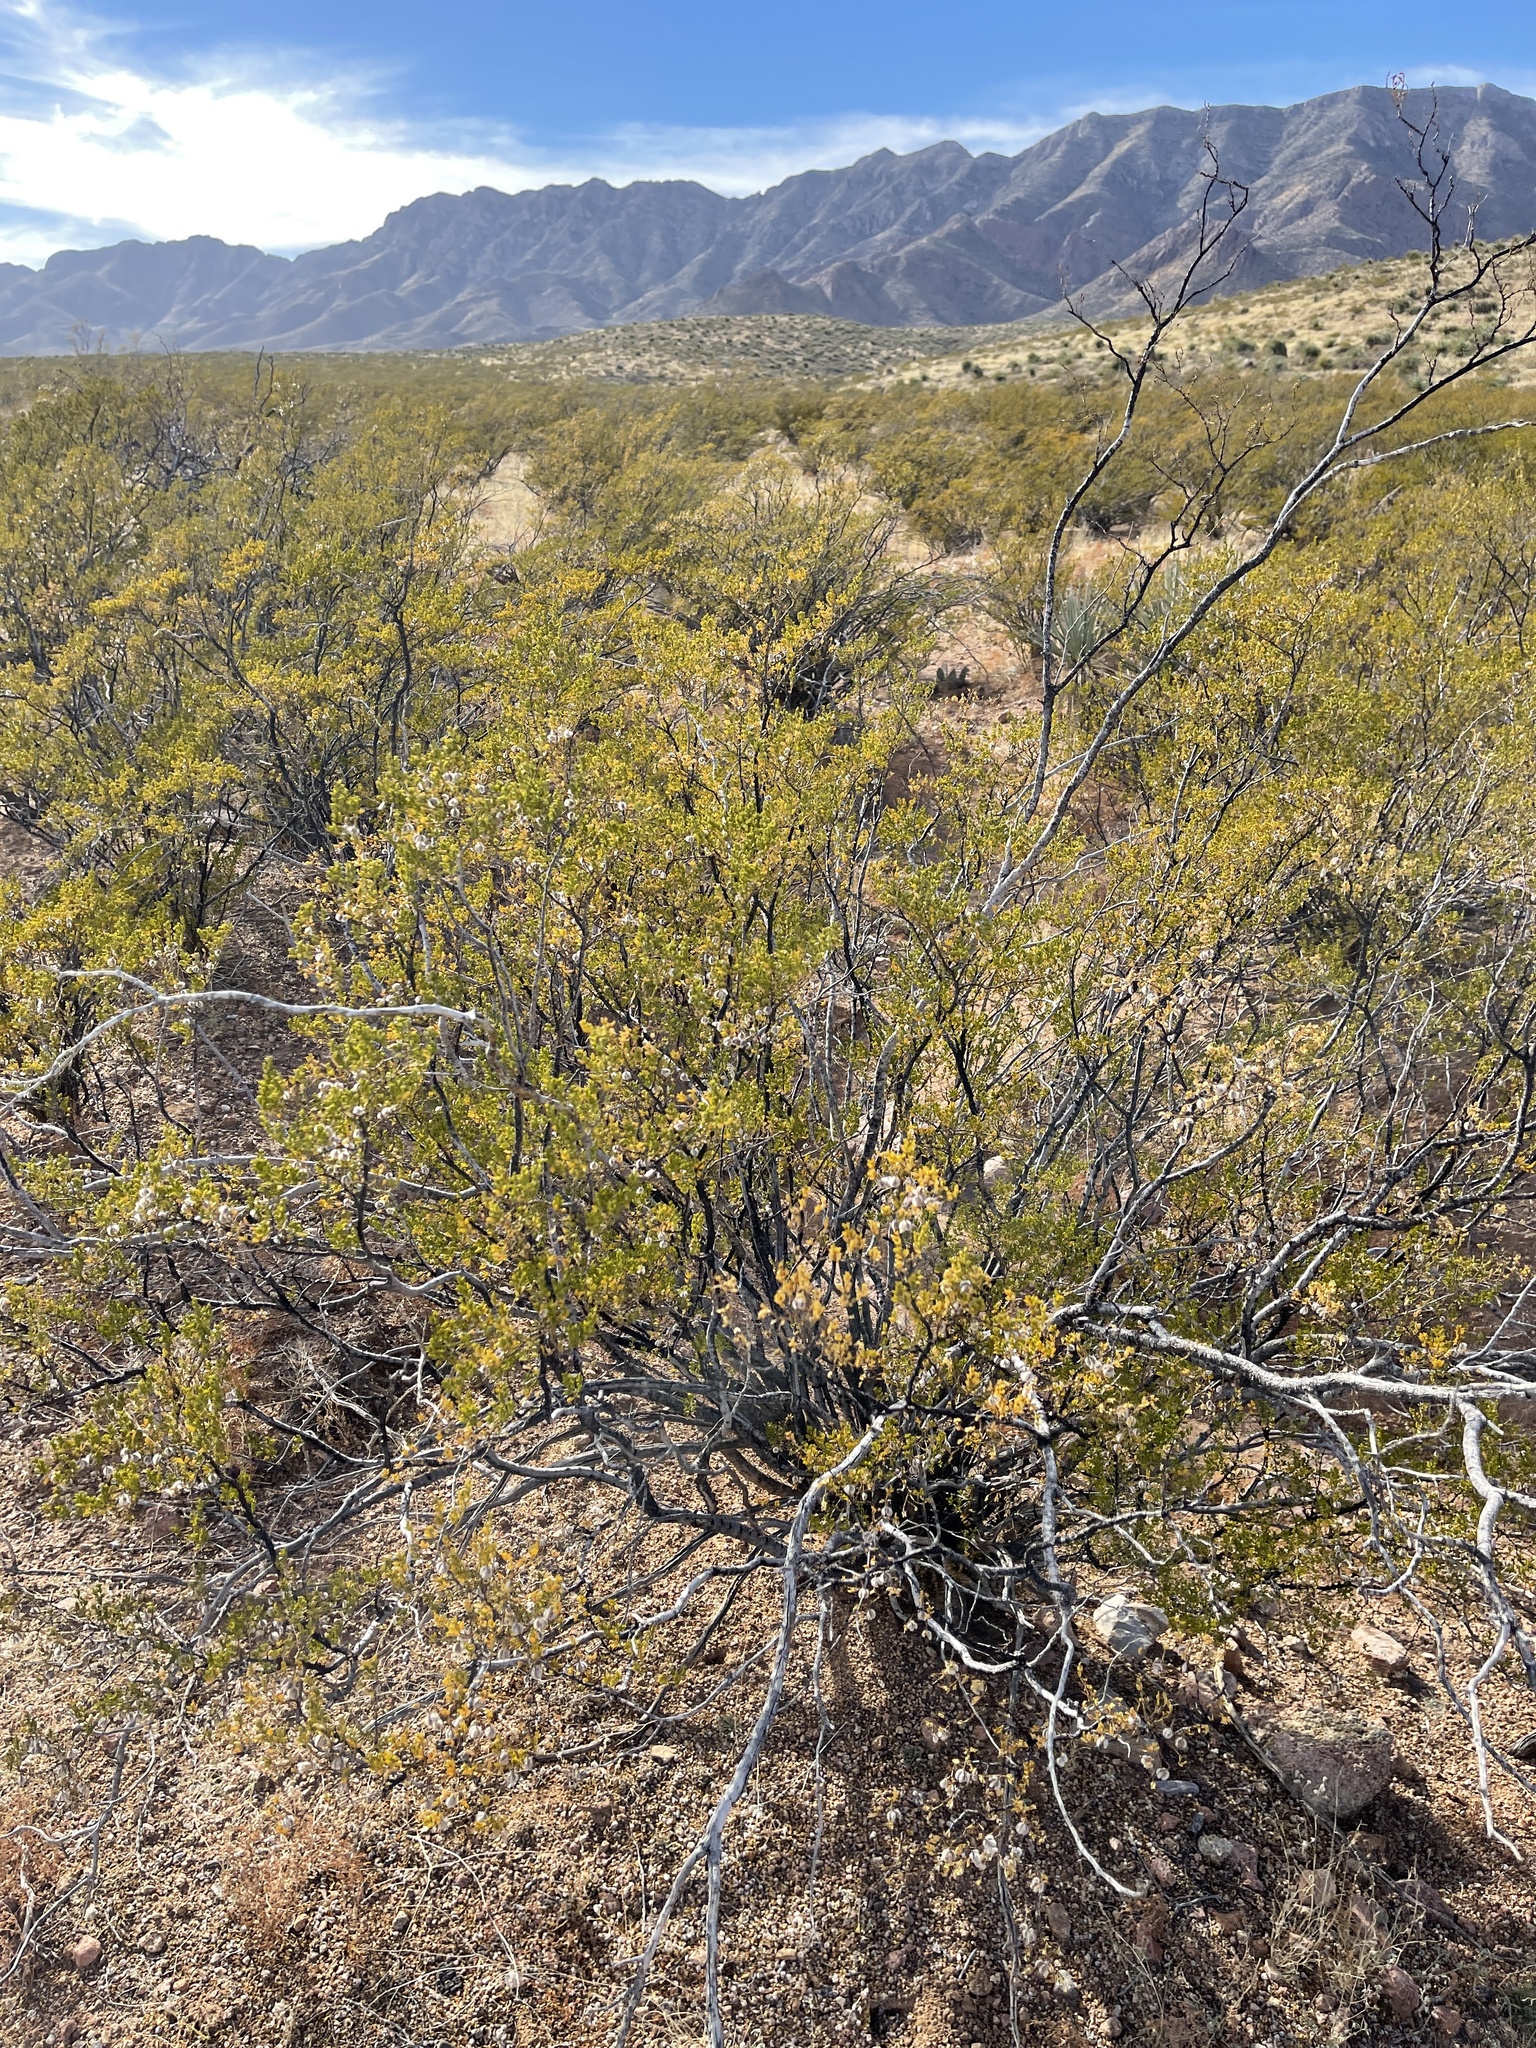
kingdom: Plantae
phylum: Tracheophyta
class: Magnoliopsida
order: Zygophyllales
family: Zygophyllaceae
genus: Larrea
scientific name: Larrea tridentata
